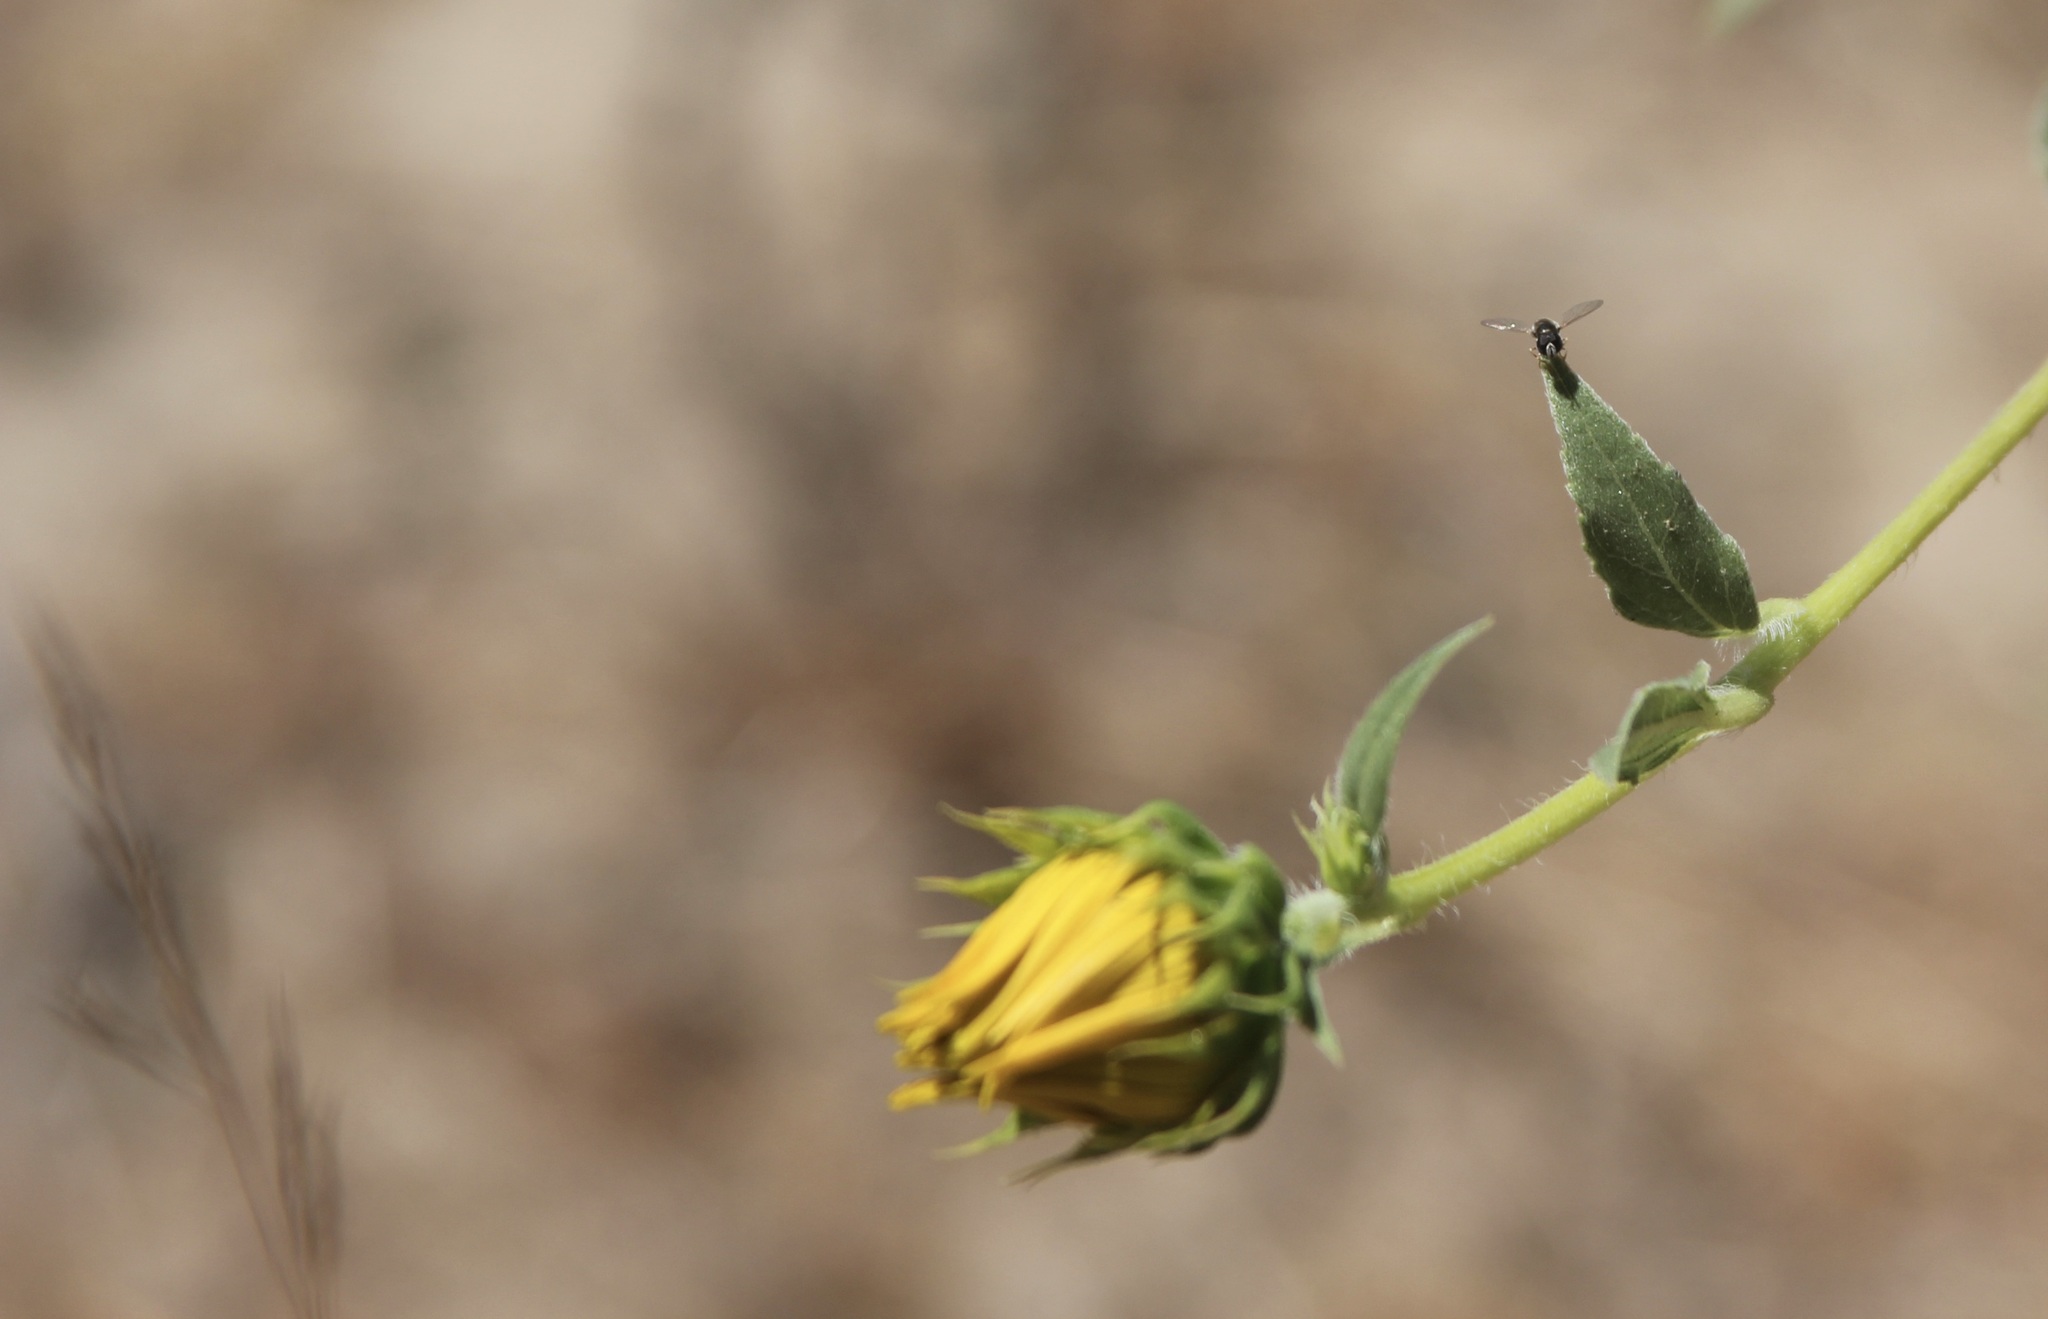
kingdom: Animalia
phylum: Arthropoda
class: Insecta
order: Diptera
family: Syrphidae
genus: Paragus
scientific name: Paragus haemorrhous
